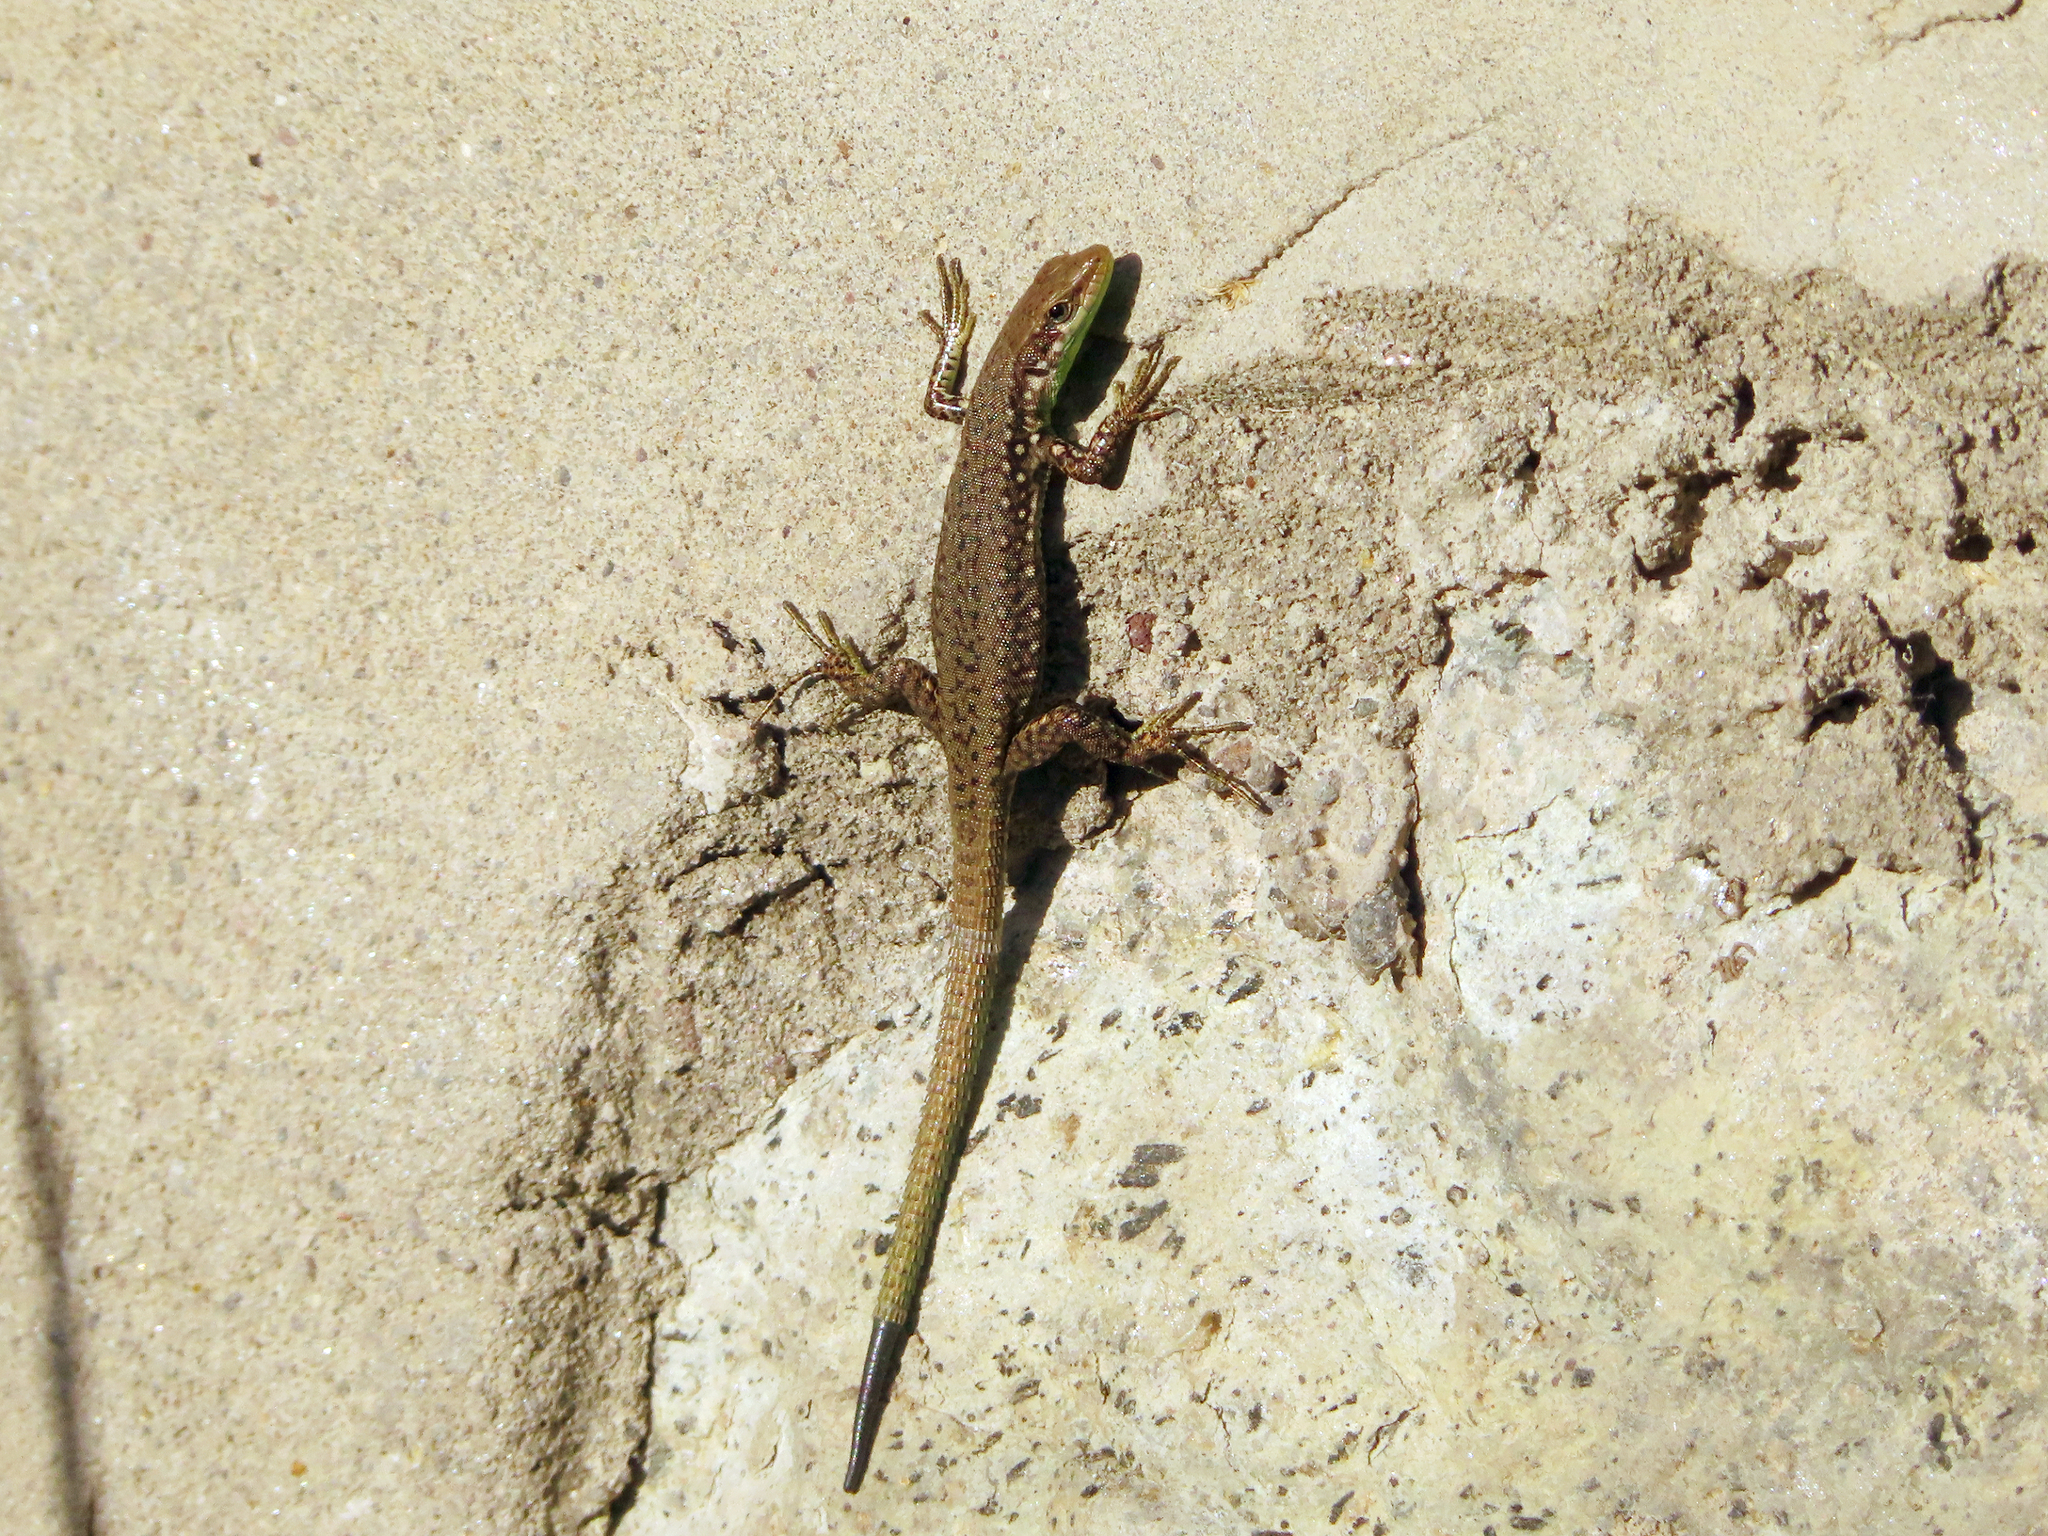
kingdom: Animalia
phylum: Chordata
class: Squamata
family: Lacertidae
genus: Darevskia
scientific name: Darevskia raddei
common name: Radde's lizard
